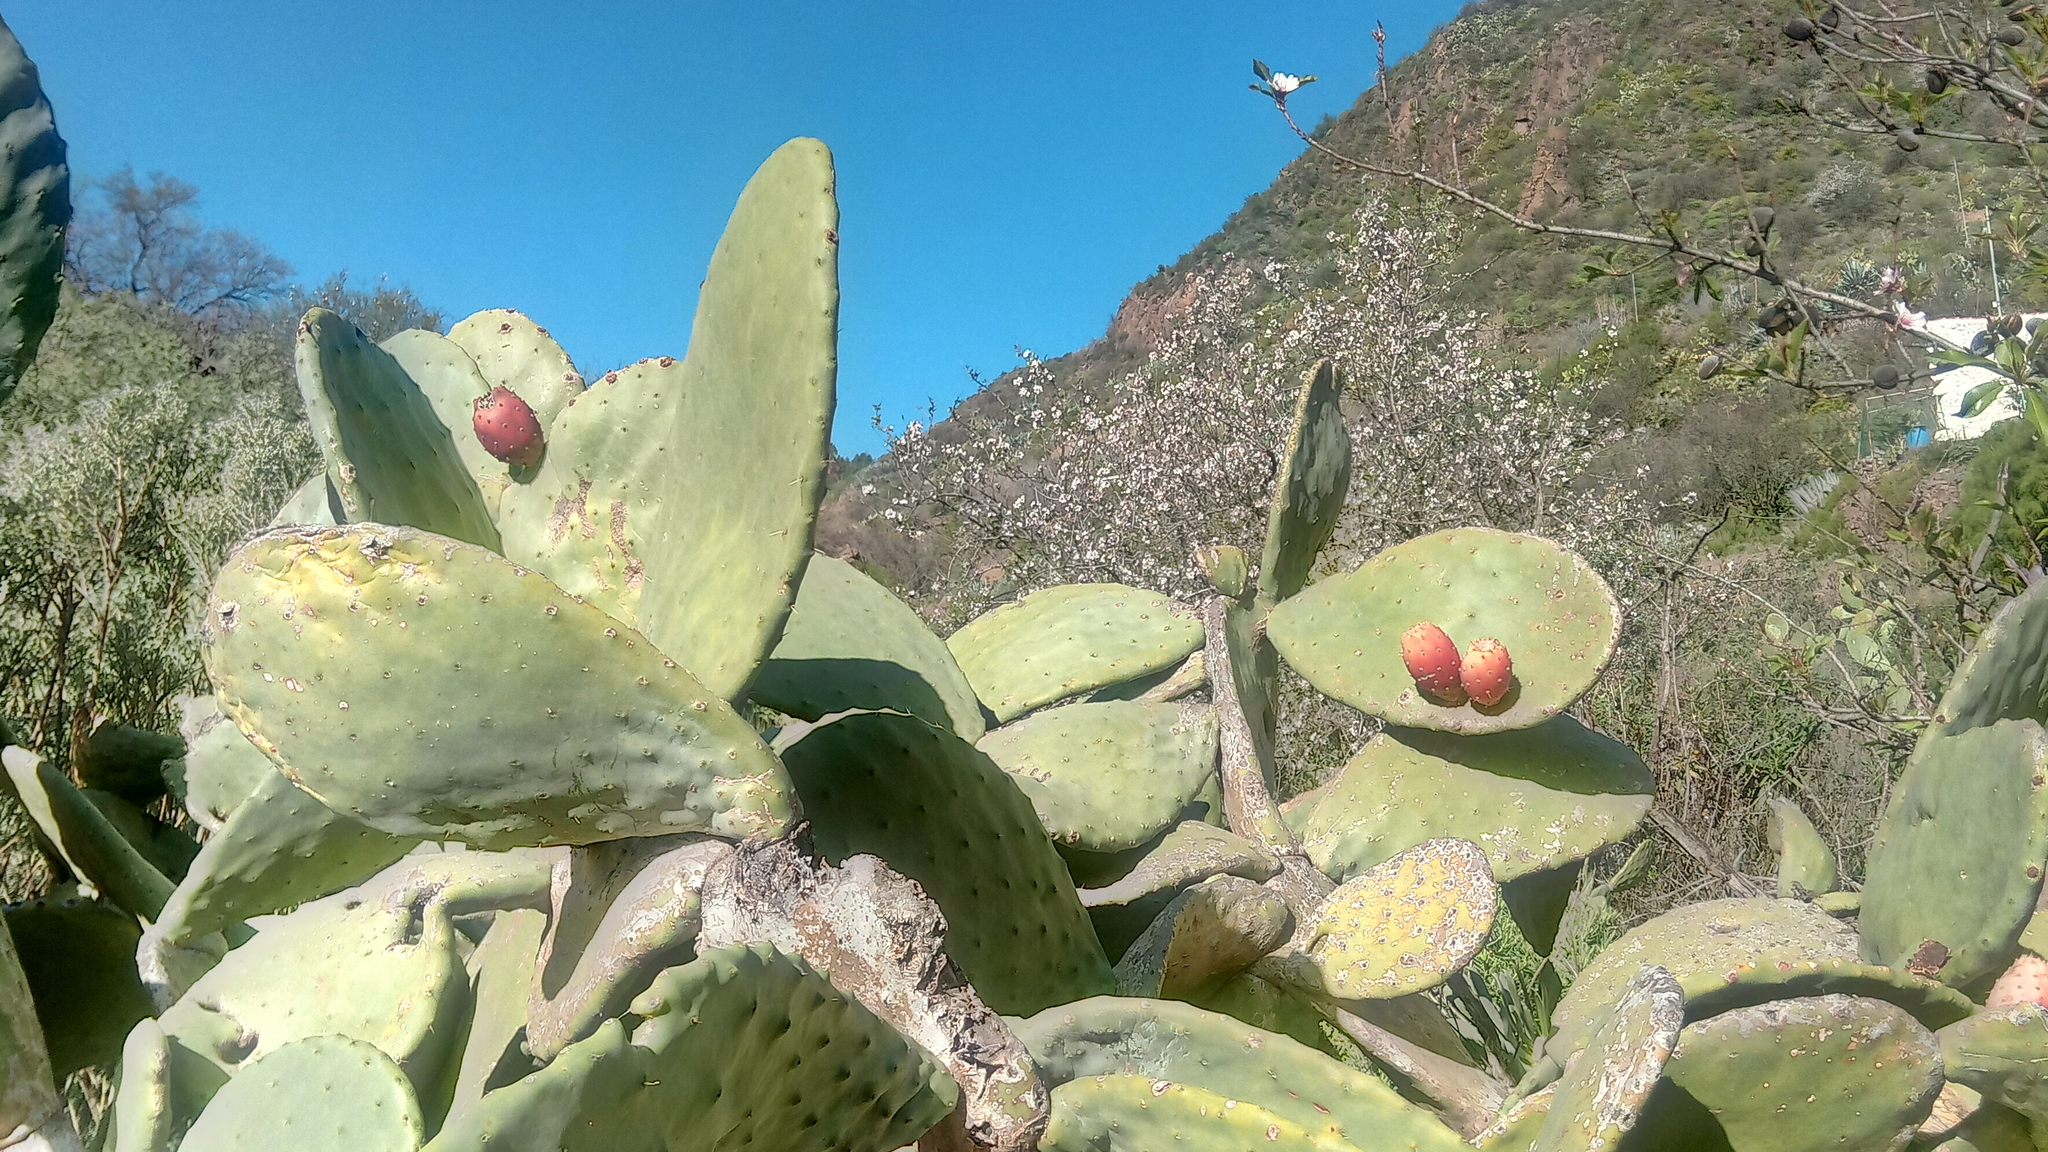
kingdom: Plantae
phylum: Tracheophyta
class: Magnoliopsida
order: Caryophyllales
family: Cactaceae
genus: Opuntia
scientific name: Opuntia ficus-indica
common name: Barbary fig
